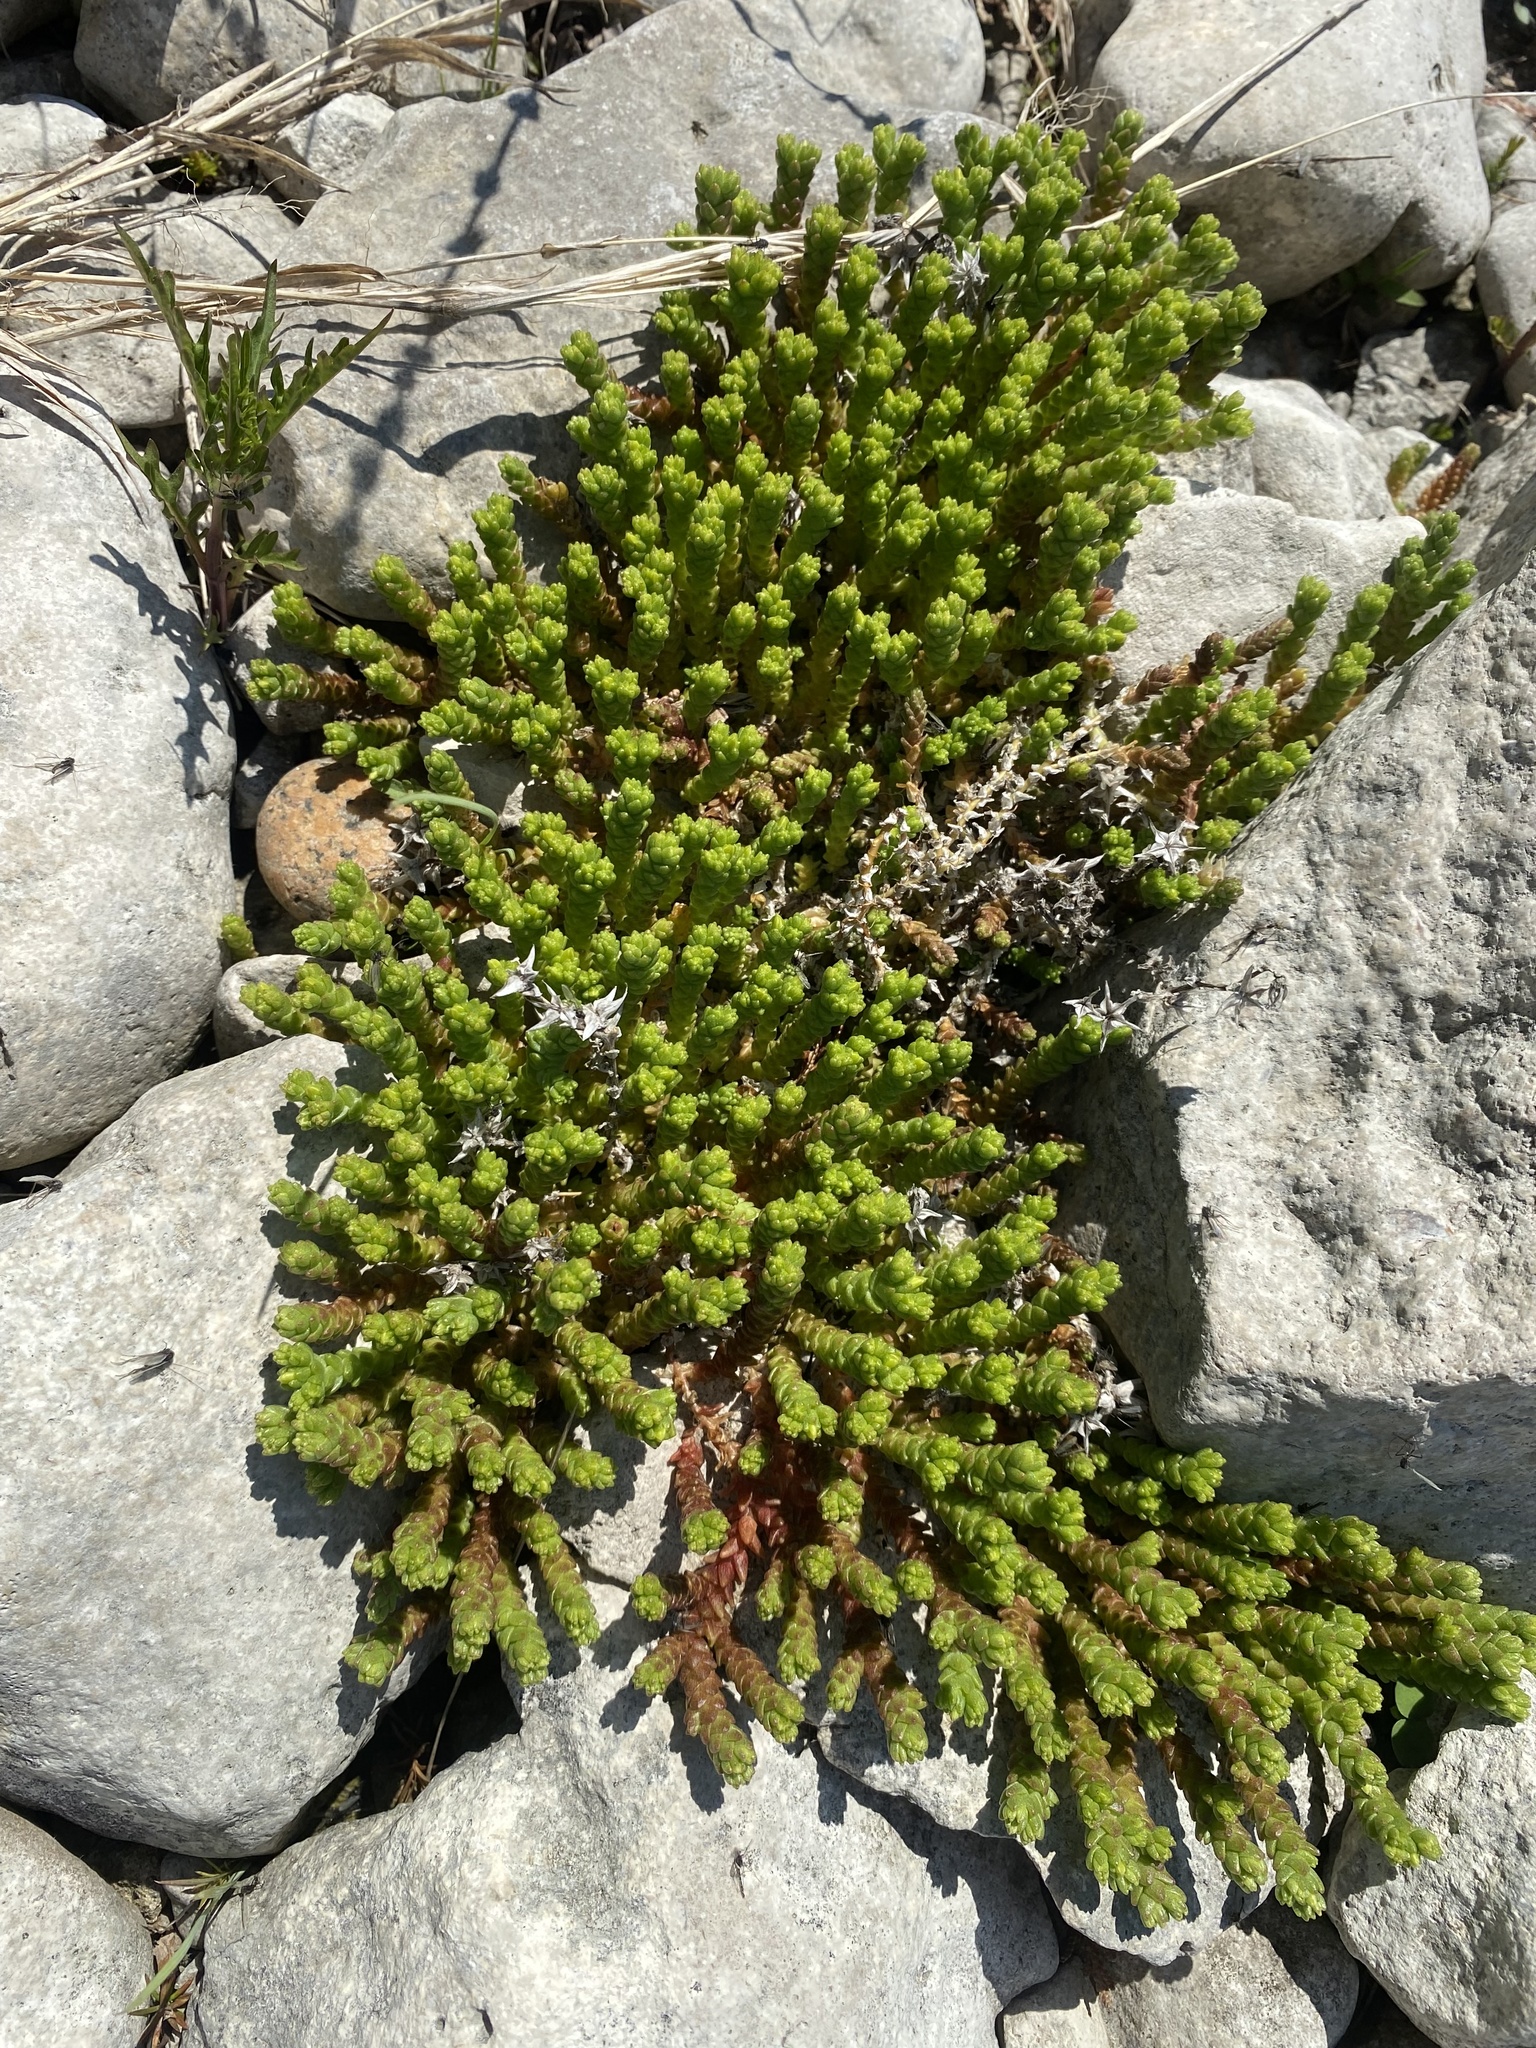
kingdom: Plantae
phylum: Tracheophyta
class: Magnoliopsida
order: Saxifragales
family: Crassulaceae
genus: Sedum
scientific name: Sedum acre
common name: Biting stonecrop
